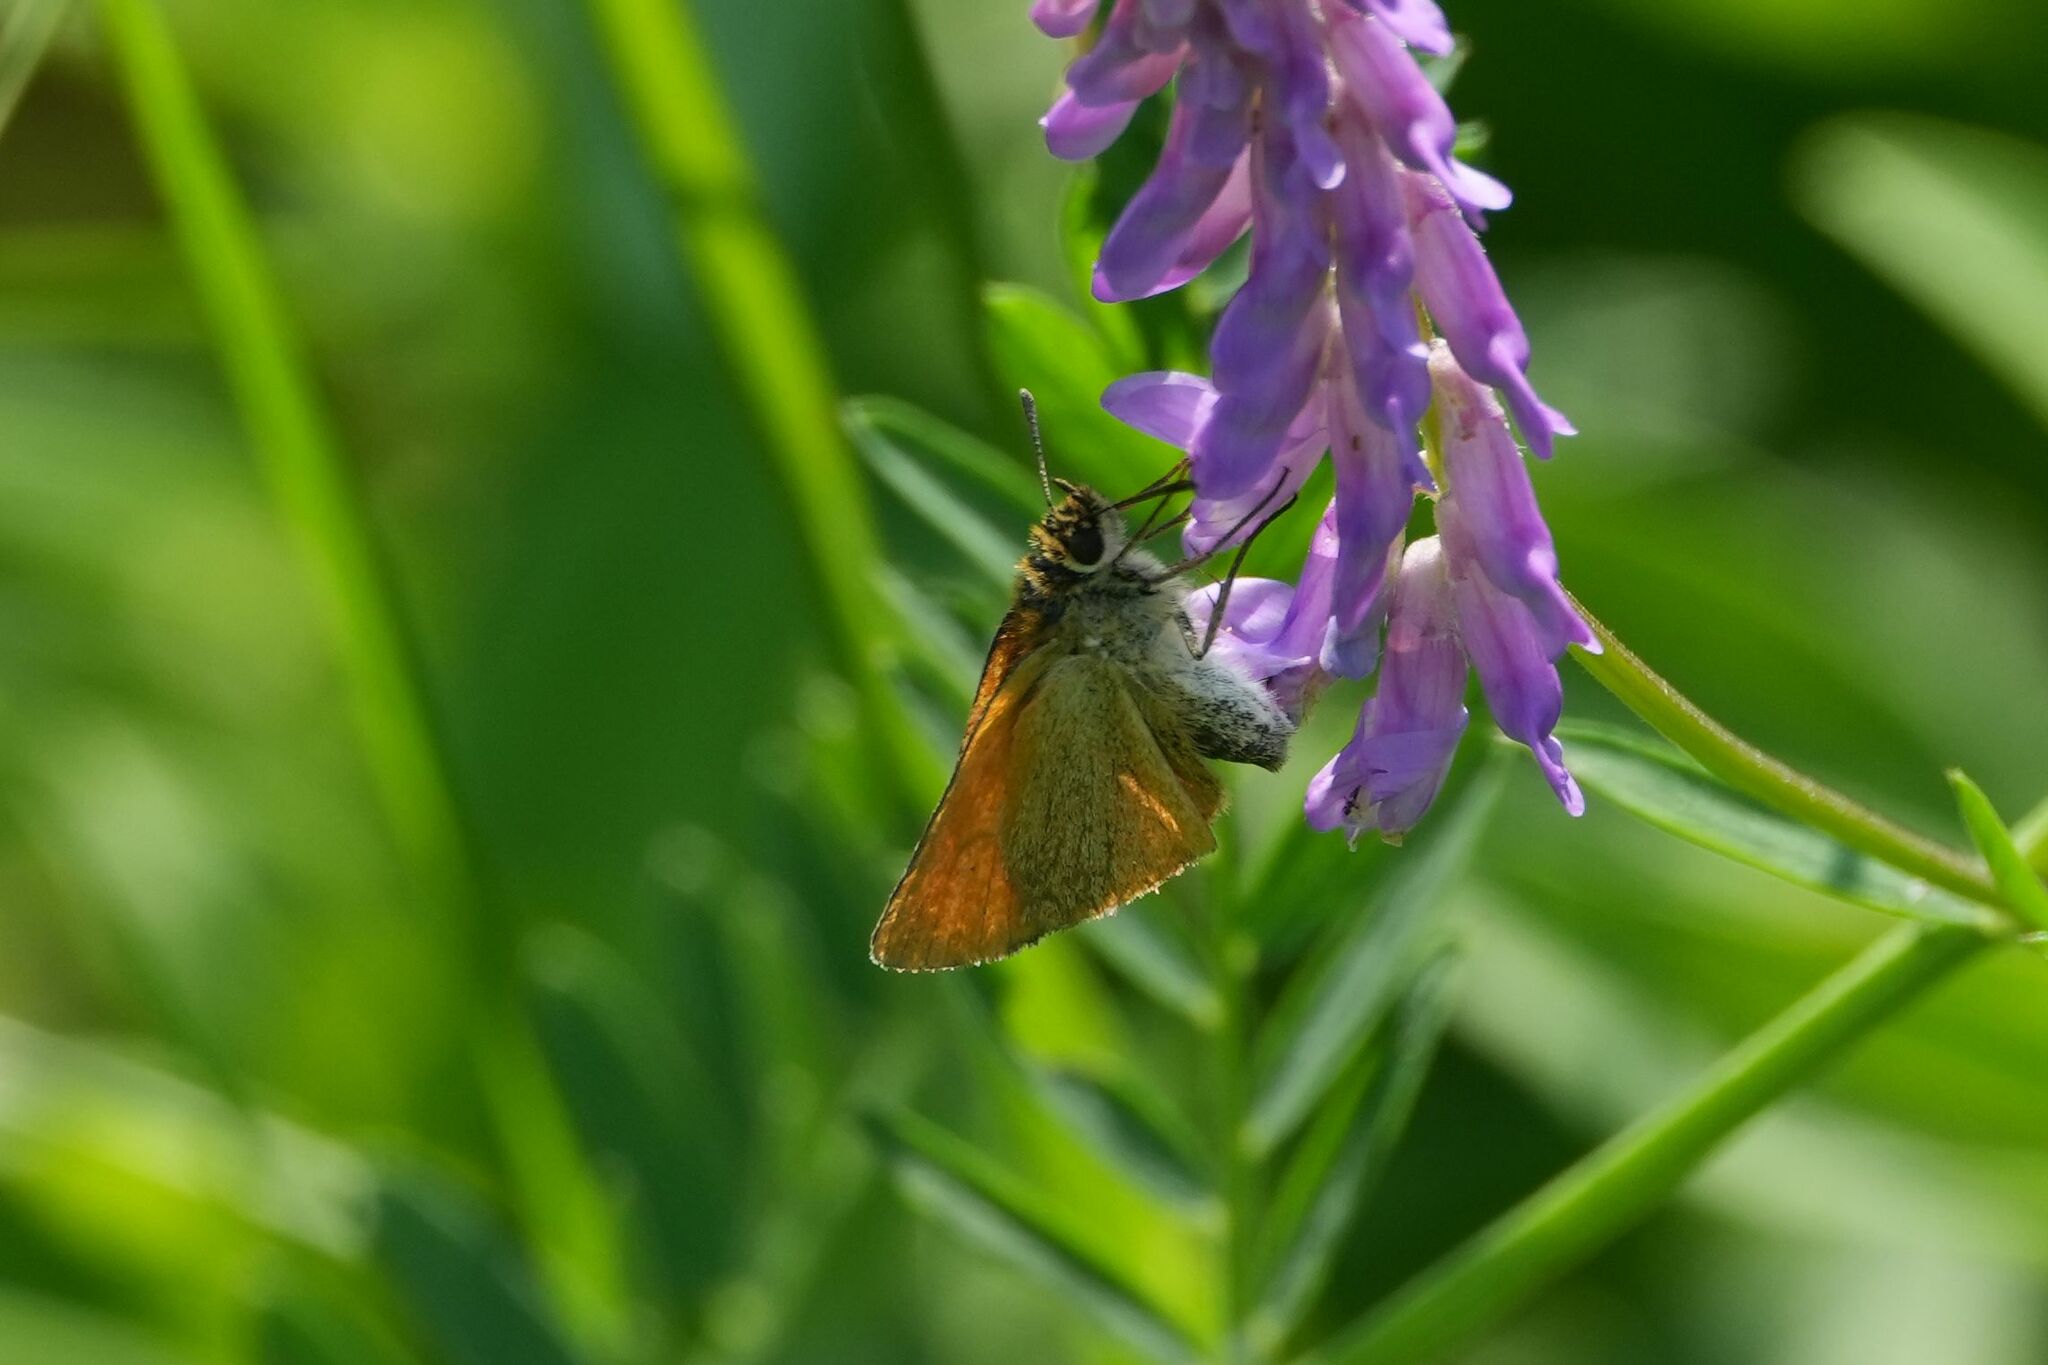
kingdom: Animalia
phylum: Arthropoda
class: Insecta
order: Lepidoptera
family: Hesperiidae
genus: Thymelicus
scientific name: Thymelicus lineola
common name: Essex skipper
